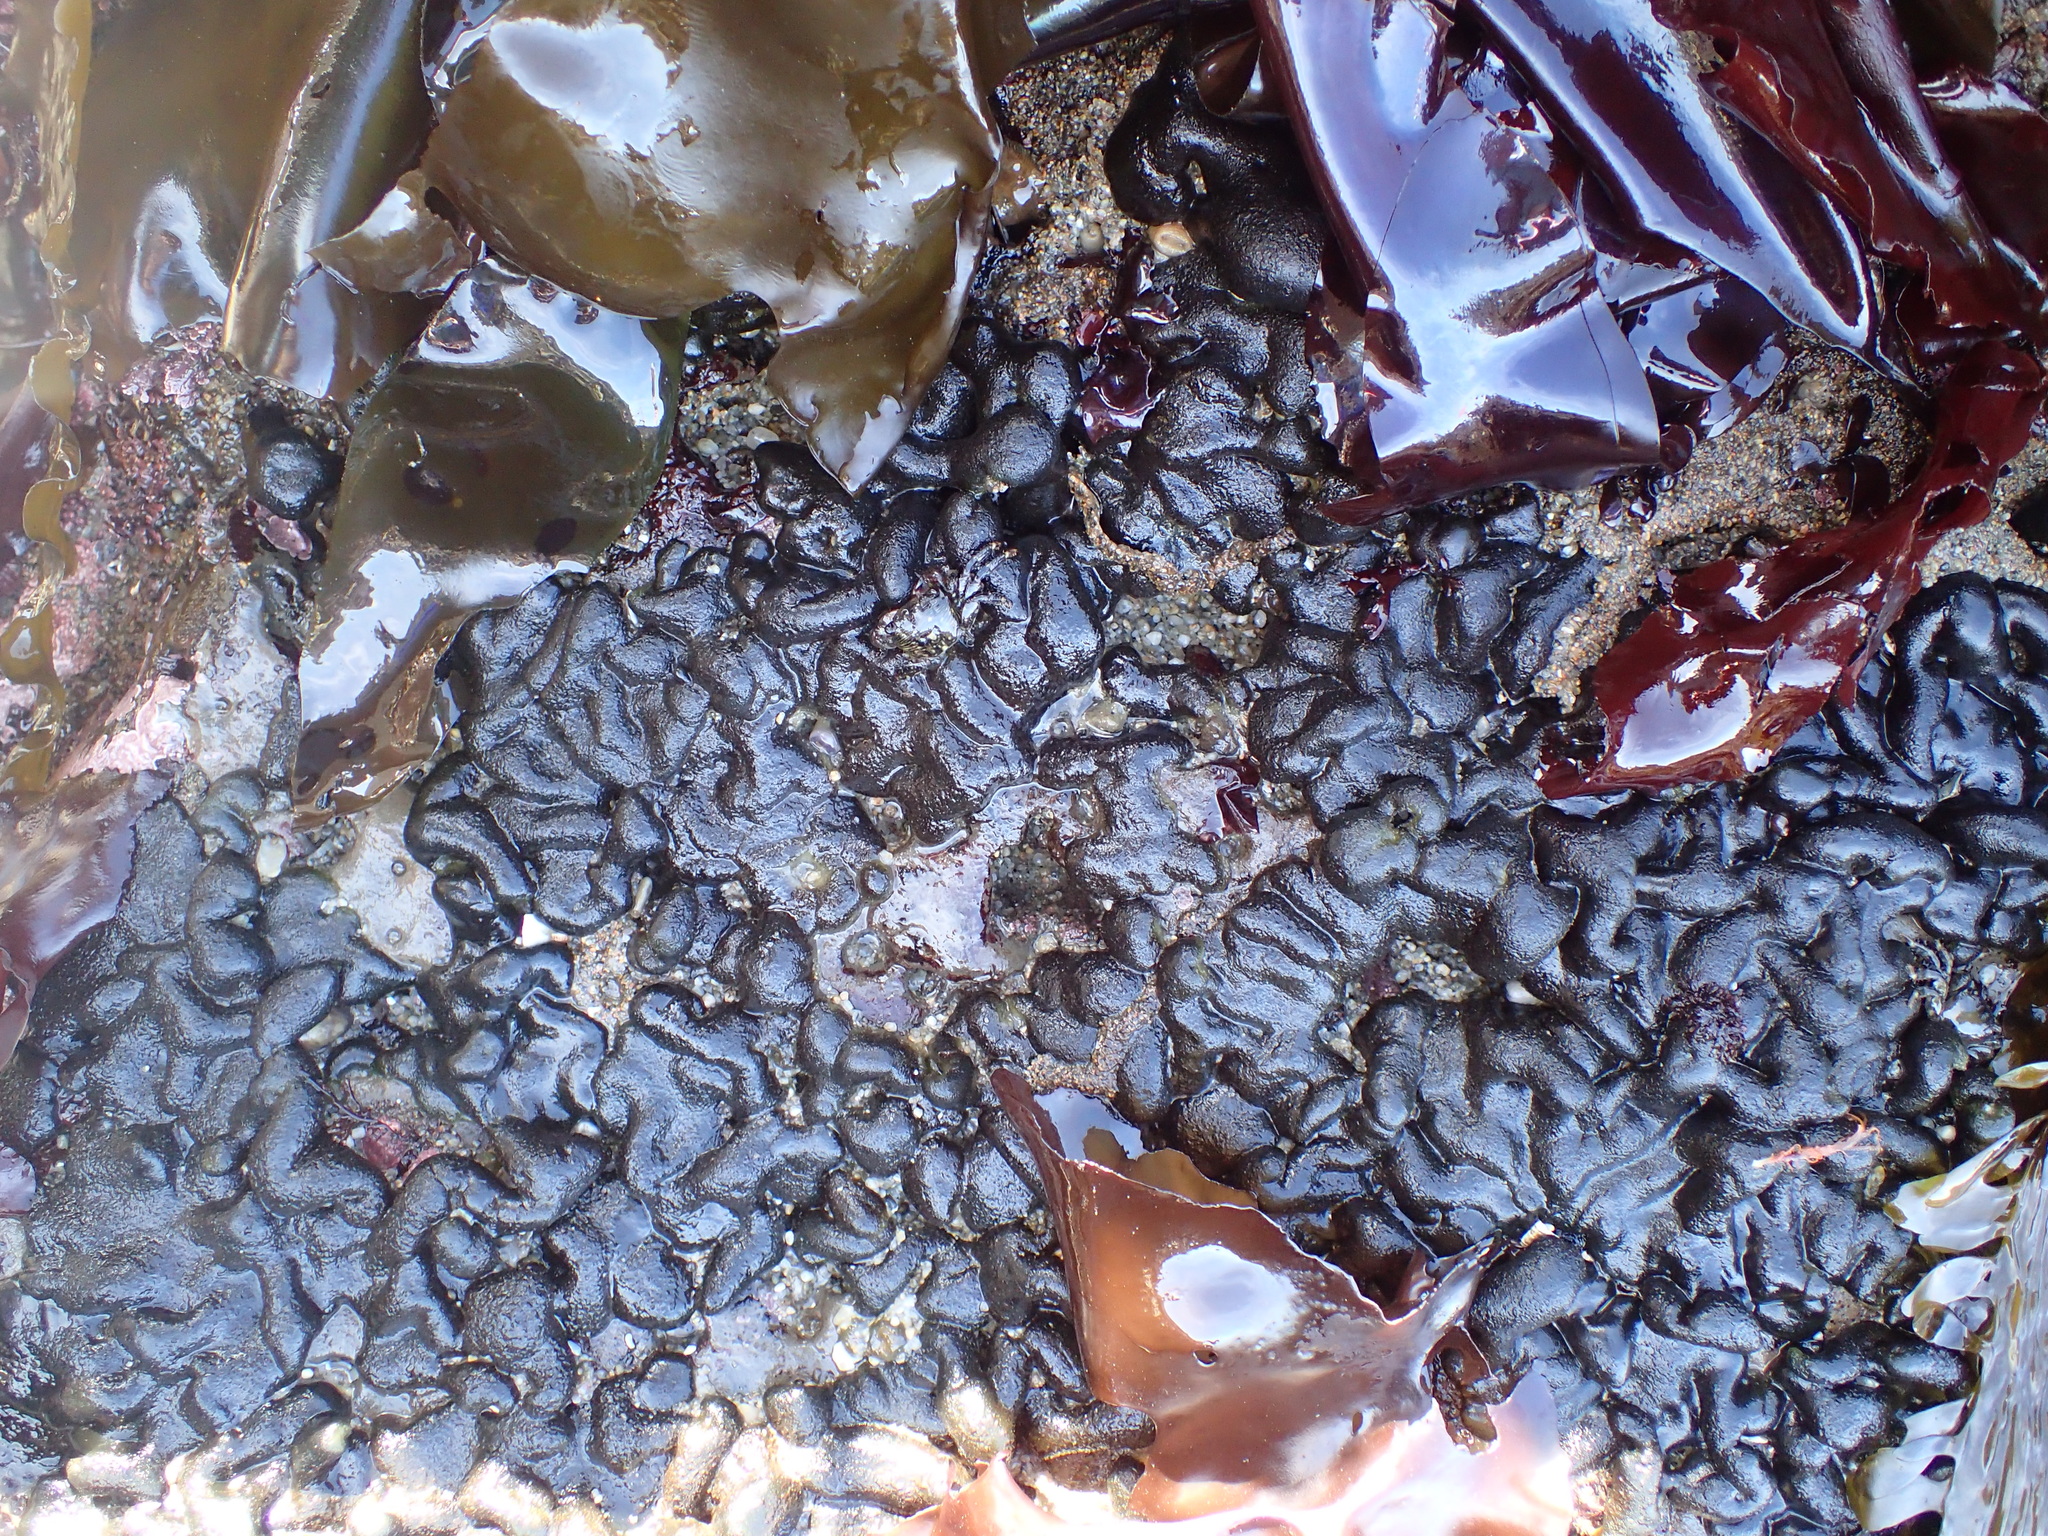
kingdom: Plantae
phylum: Chlorophyta
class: Ulvophyceae
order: Bryopsidales
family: Codiaceae
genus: Codium
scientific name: Codium setchellii
